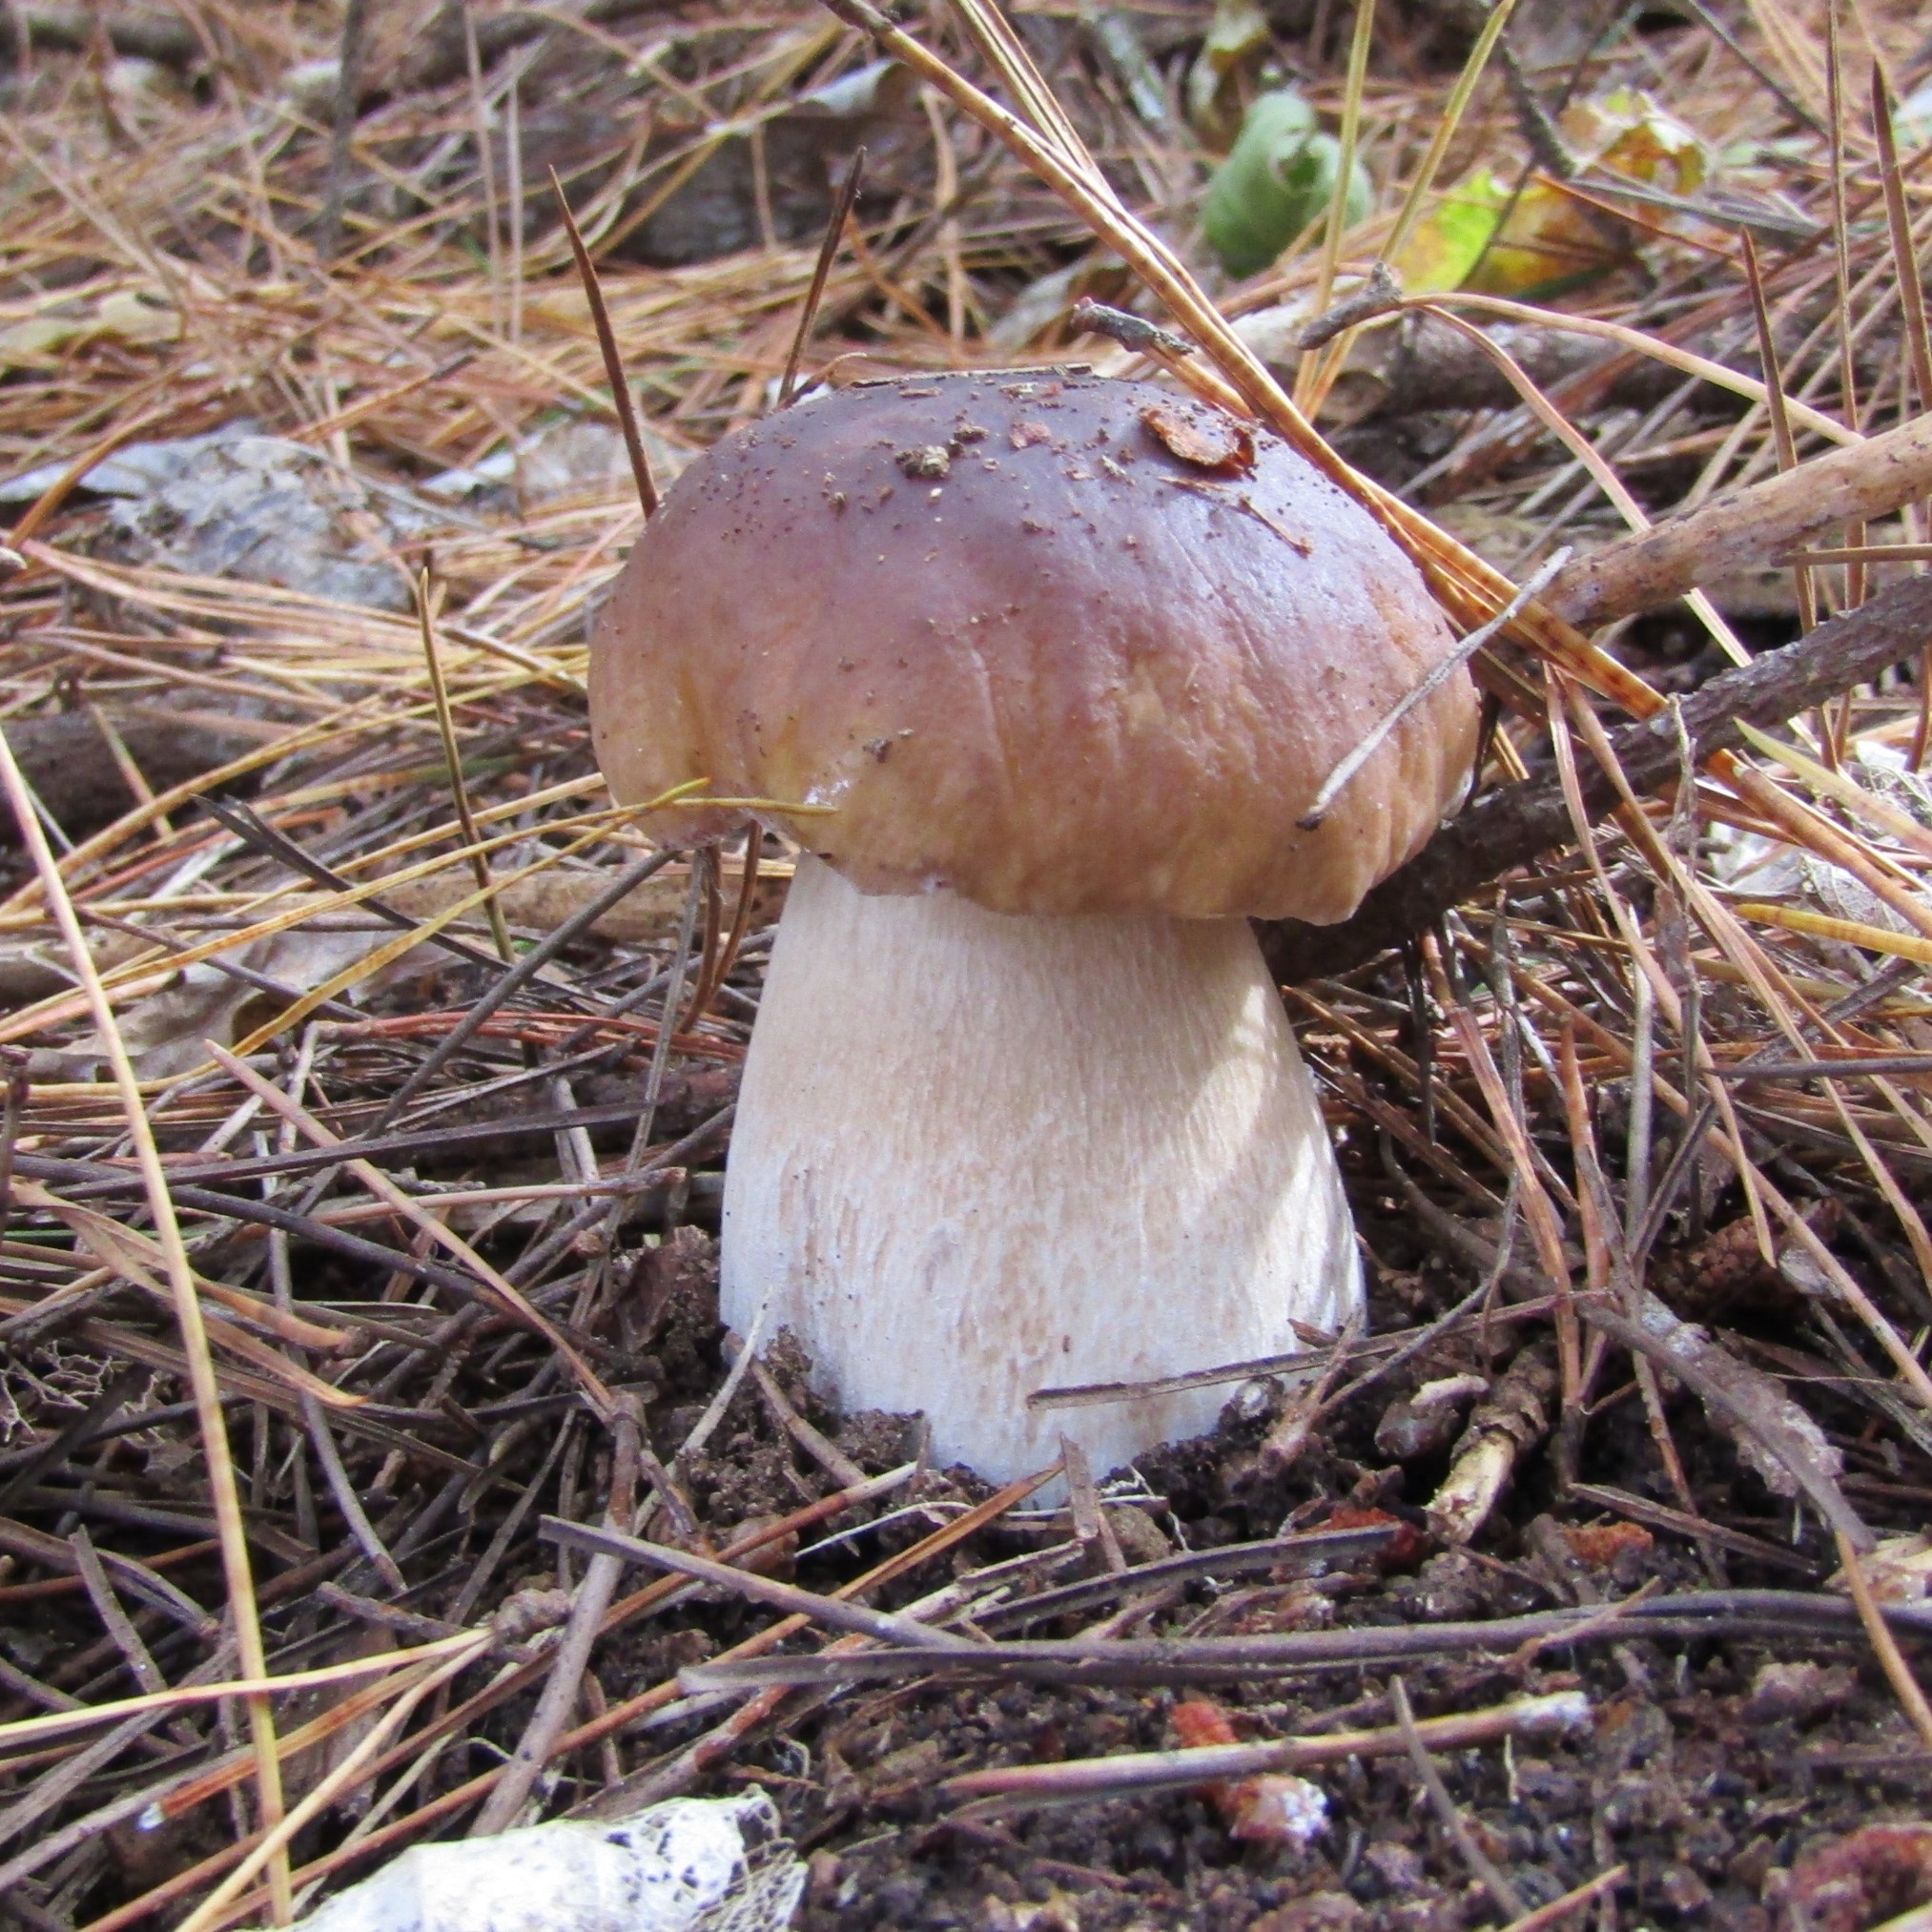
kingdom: Fungi
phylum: Basidiomycota
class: Agaricomycetes
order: Boletales
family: Boletaceae
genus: Boletus
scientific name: Boletus edulis
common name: Cep
